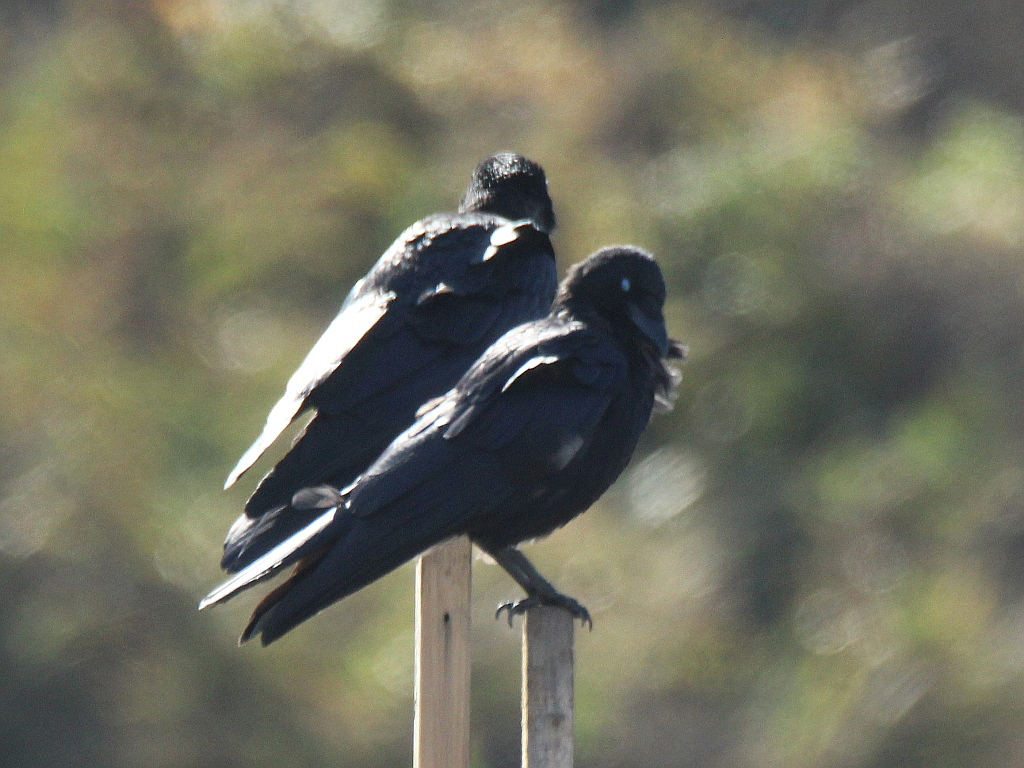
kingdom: Animalia
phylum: Chordata
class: Aves
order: Passeriformes
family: Corvidae
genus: Corvus
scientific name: Corvus corone
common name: Carrion crow
